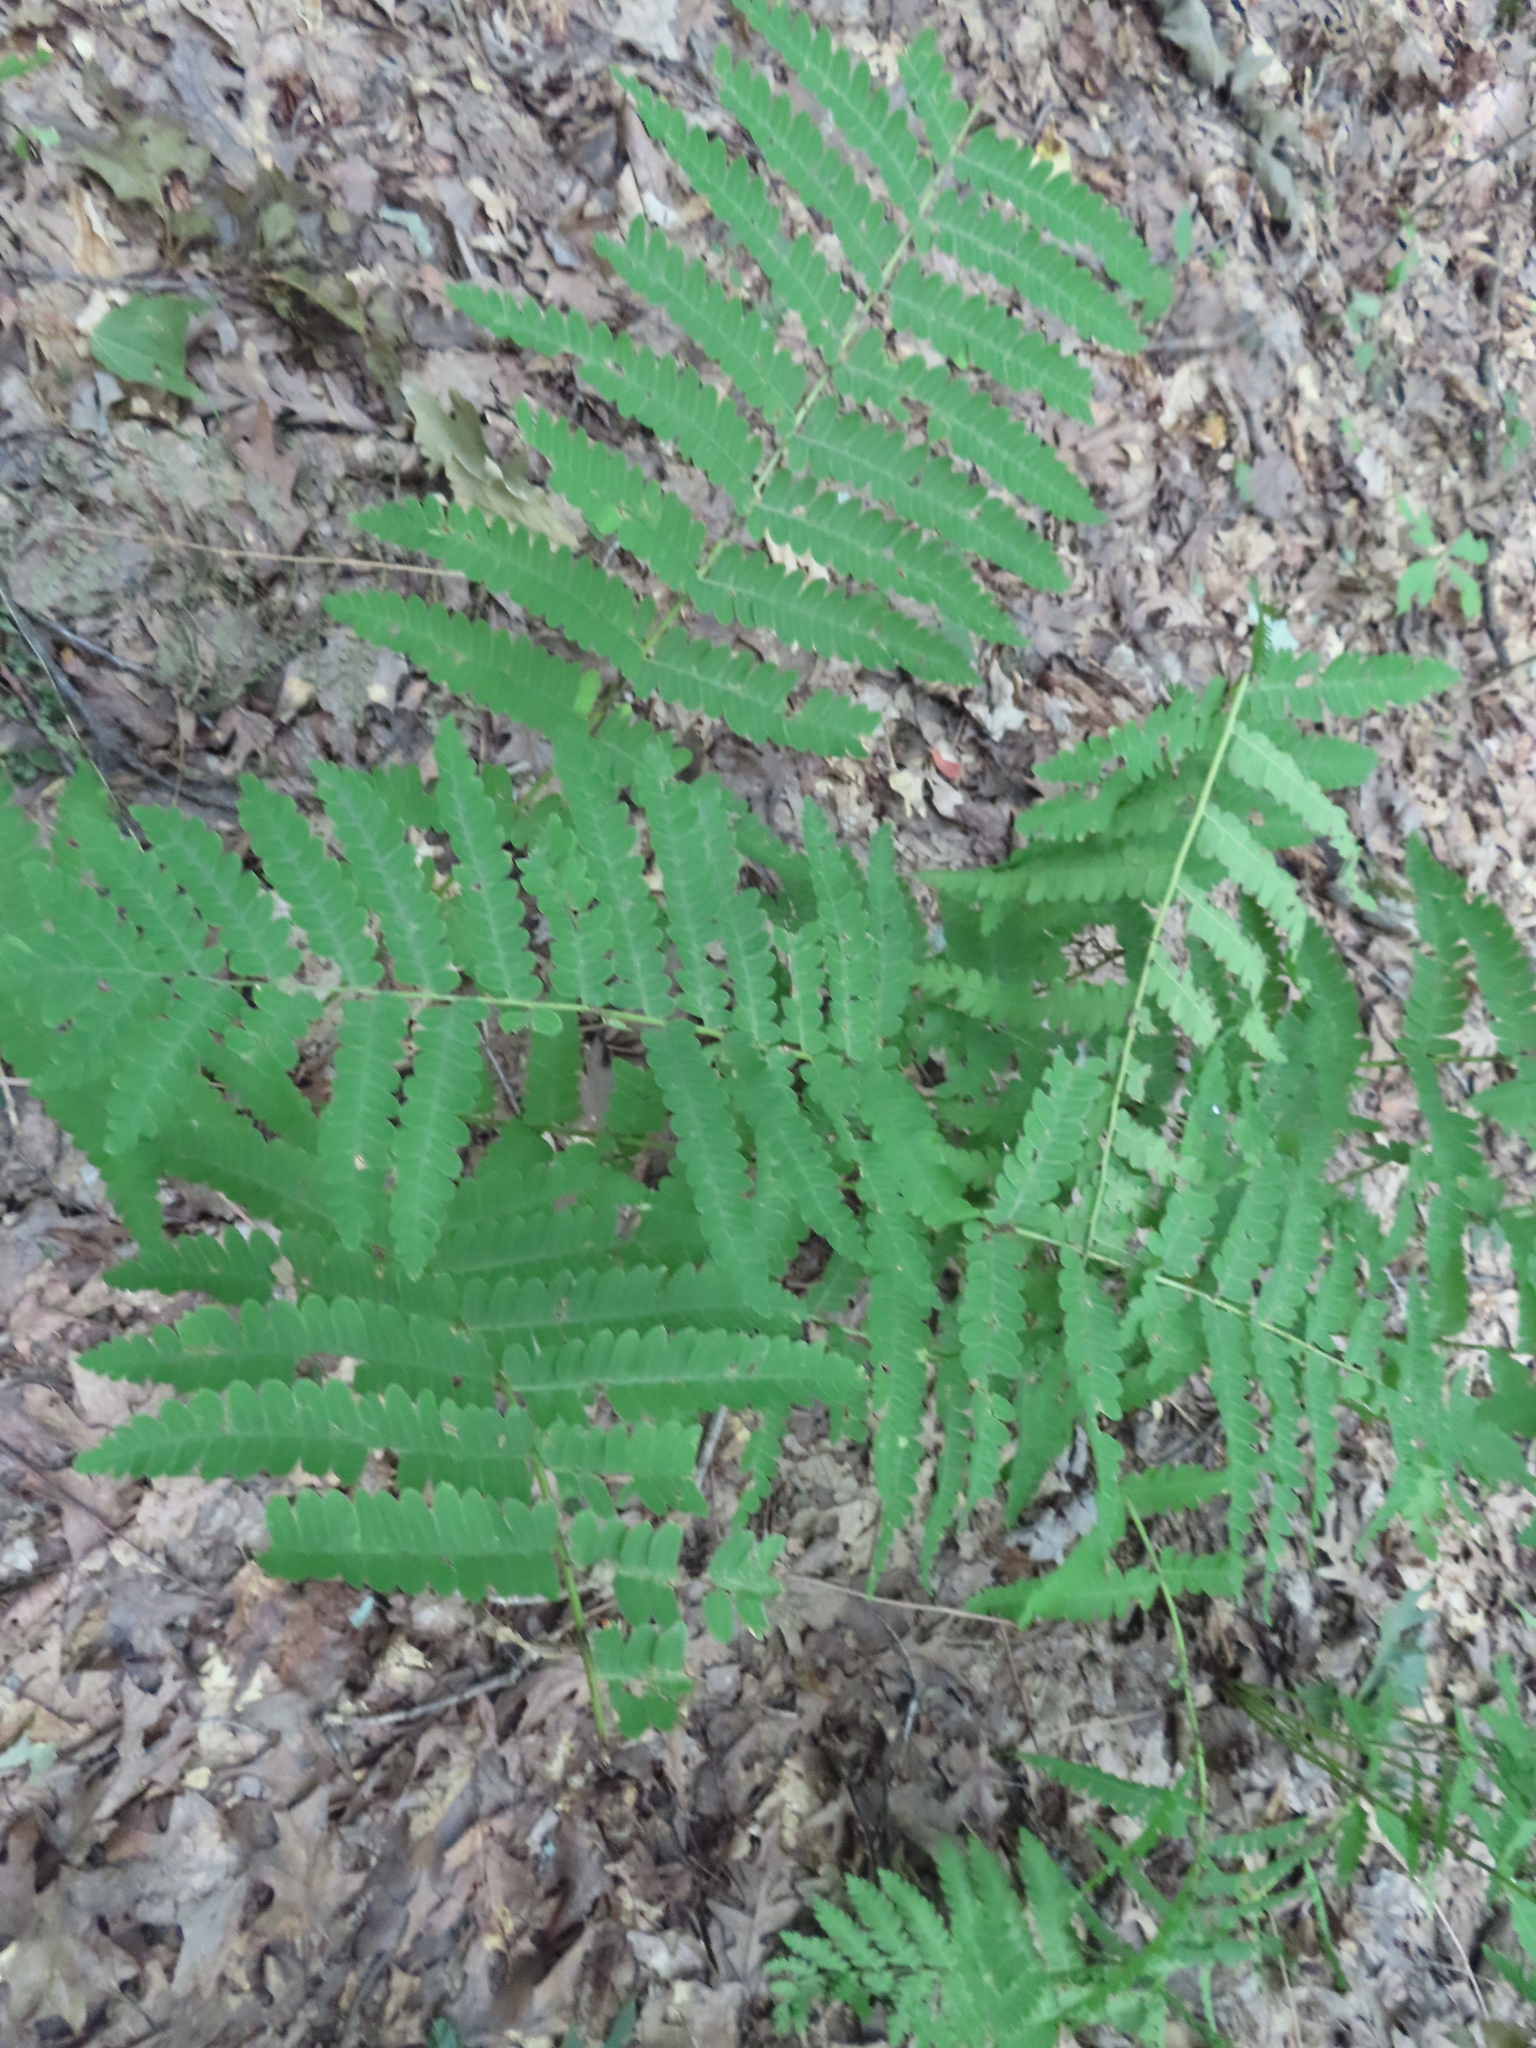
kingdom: Plantae
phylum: Tracheophyta
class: Polypodiopsida
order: Osmundales
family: Osmundaceae
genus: Claytosmunda
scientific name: Claytosmunda claytoniana
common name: Clayton's fern
